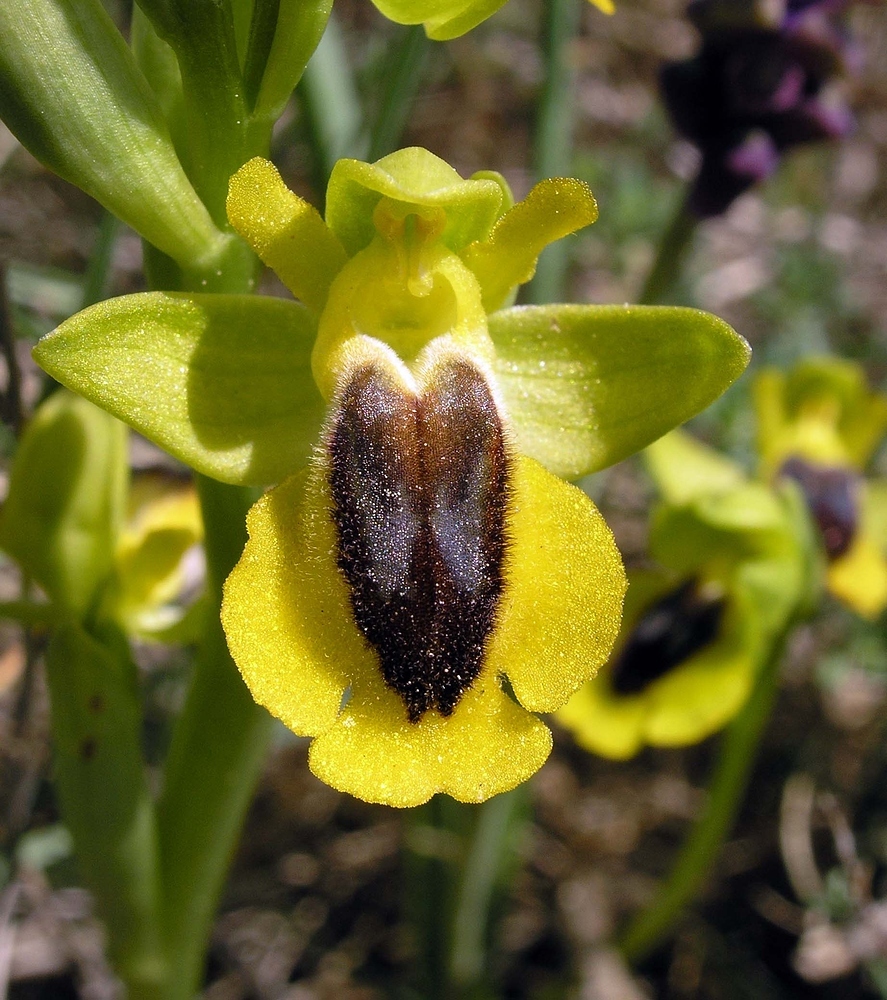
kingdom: Plantae
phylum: Tracheophyta
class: Liliopsida
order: Asparagales
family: Orchidaceae
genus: Ophrys
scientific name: Ophrys lutea
